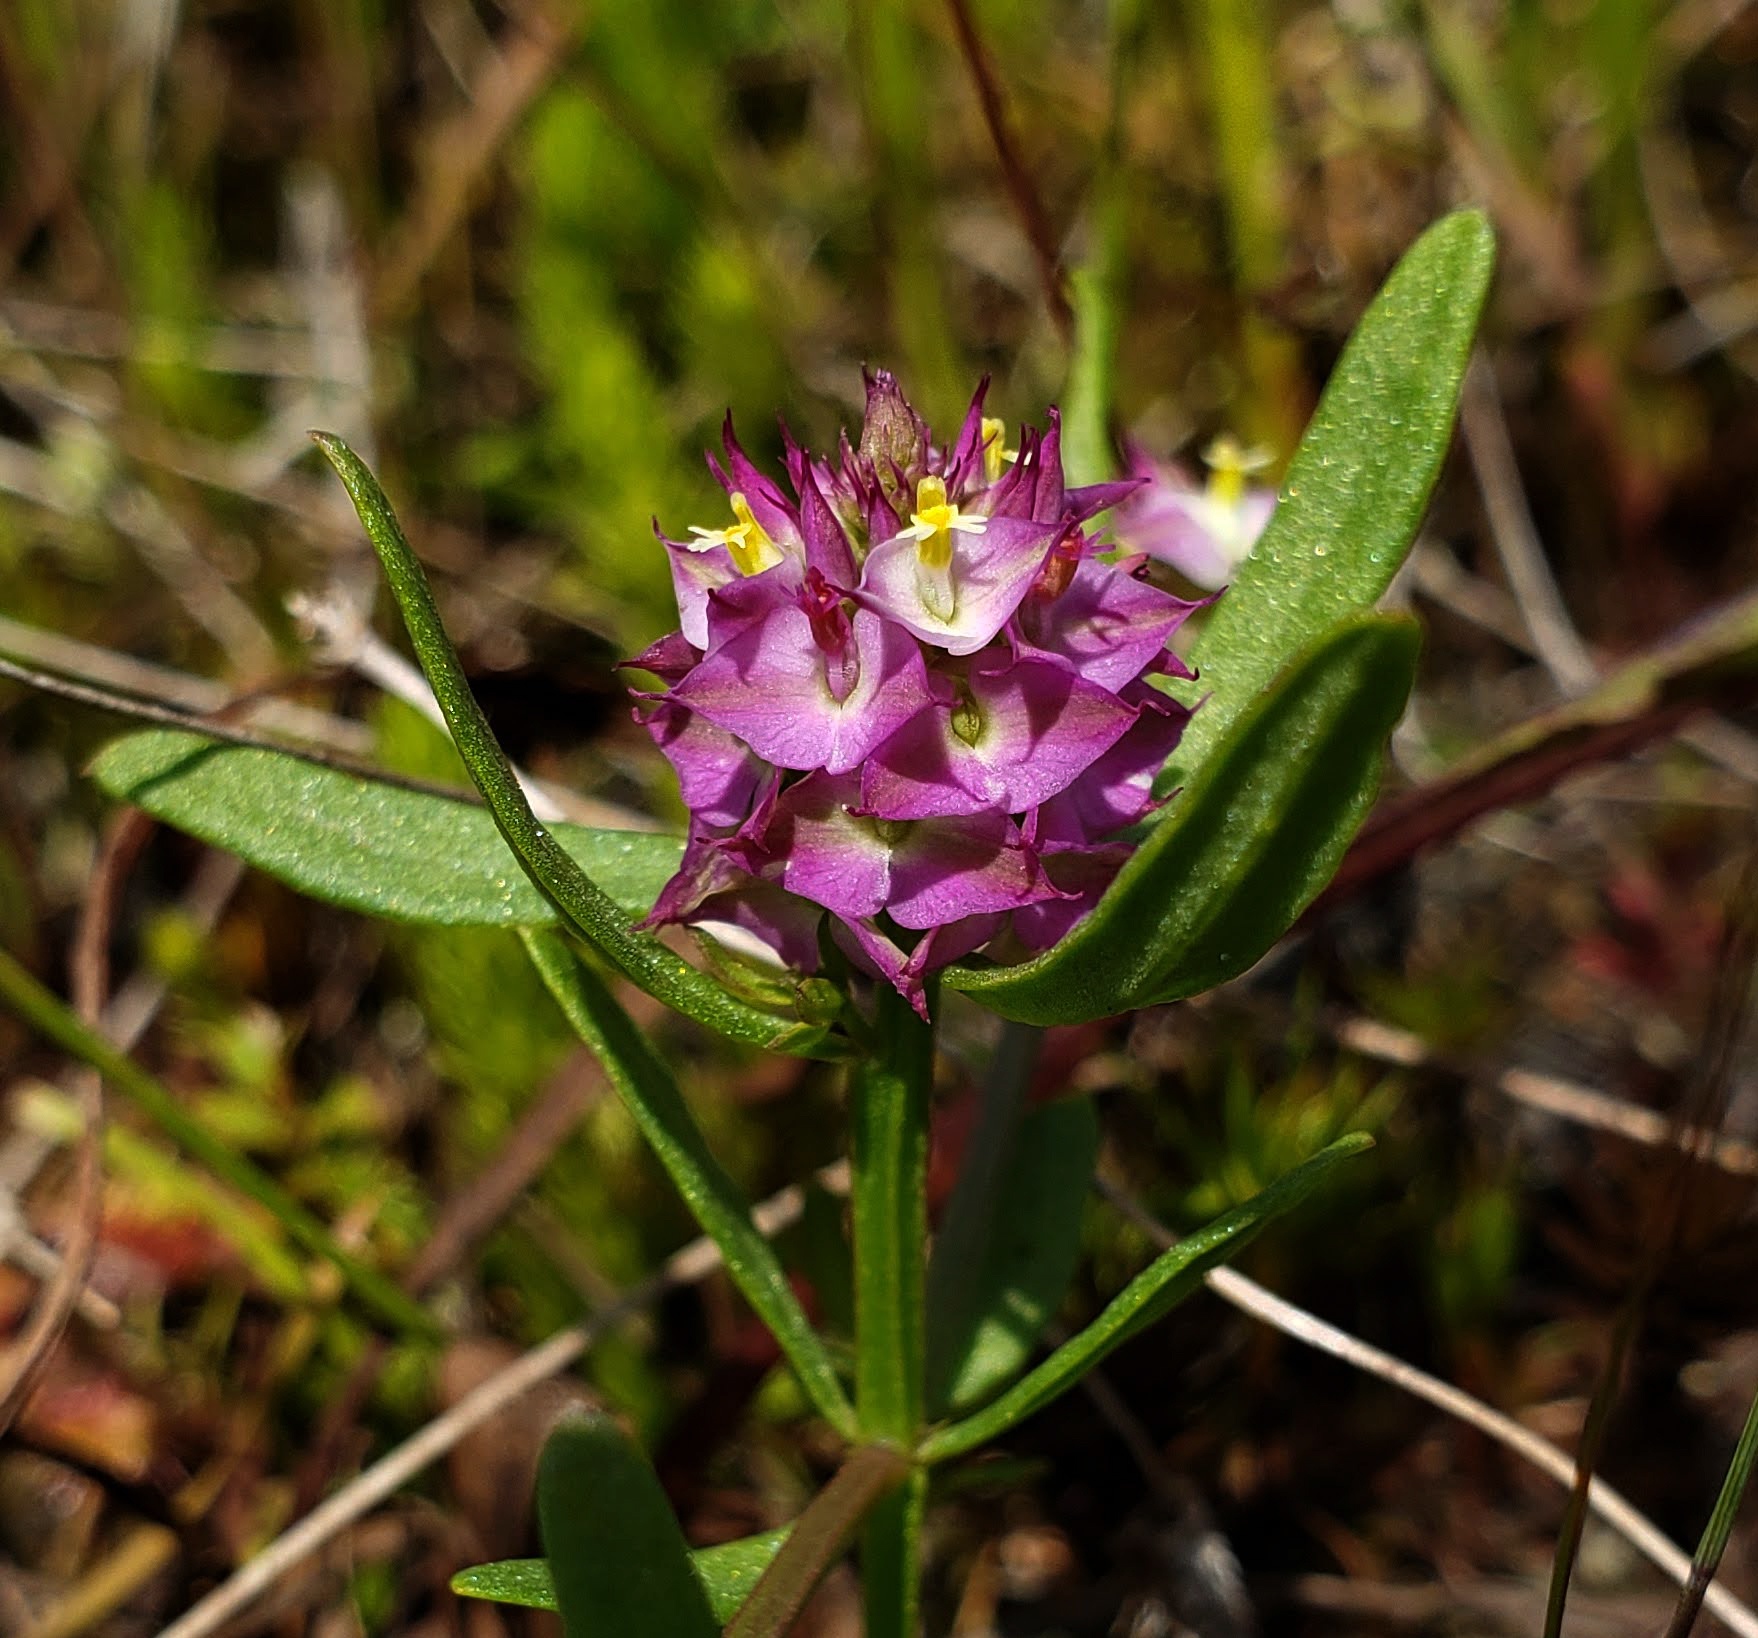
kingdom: Plantae
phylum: Tracheophyta
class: Magnoliopsida
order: Fabales
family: Polygalaceae
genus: Polygala
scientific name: Polygala cruciata
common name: Drumheads
